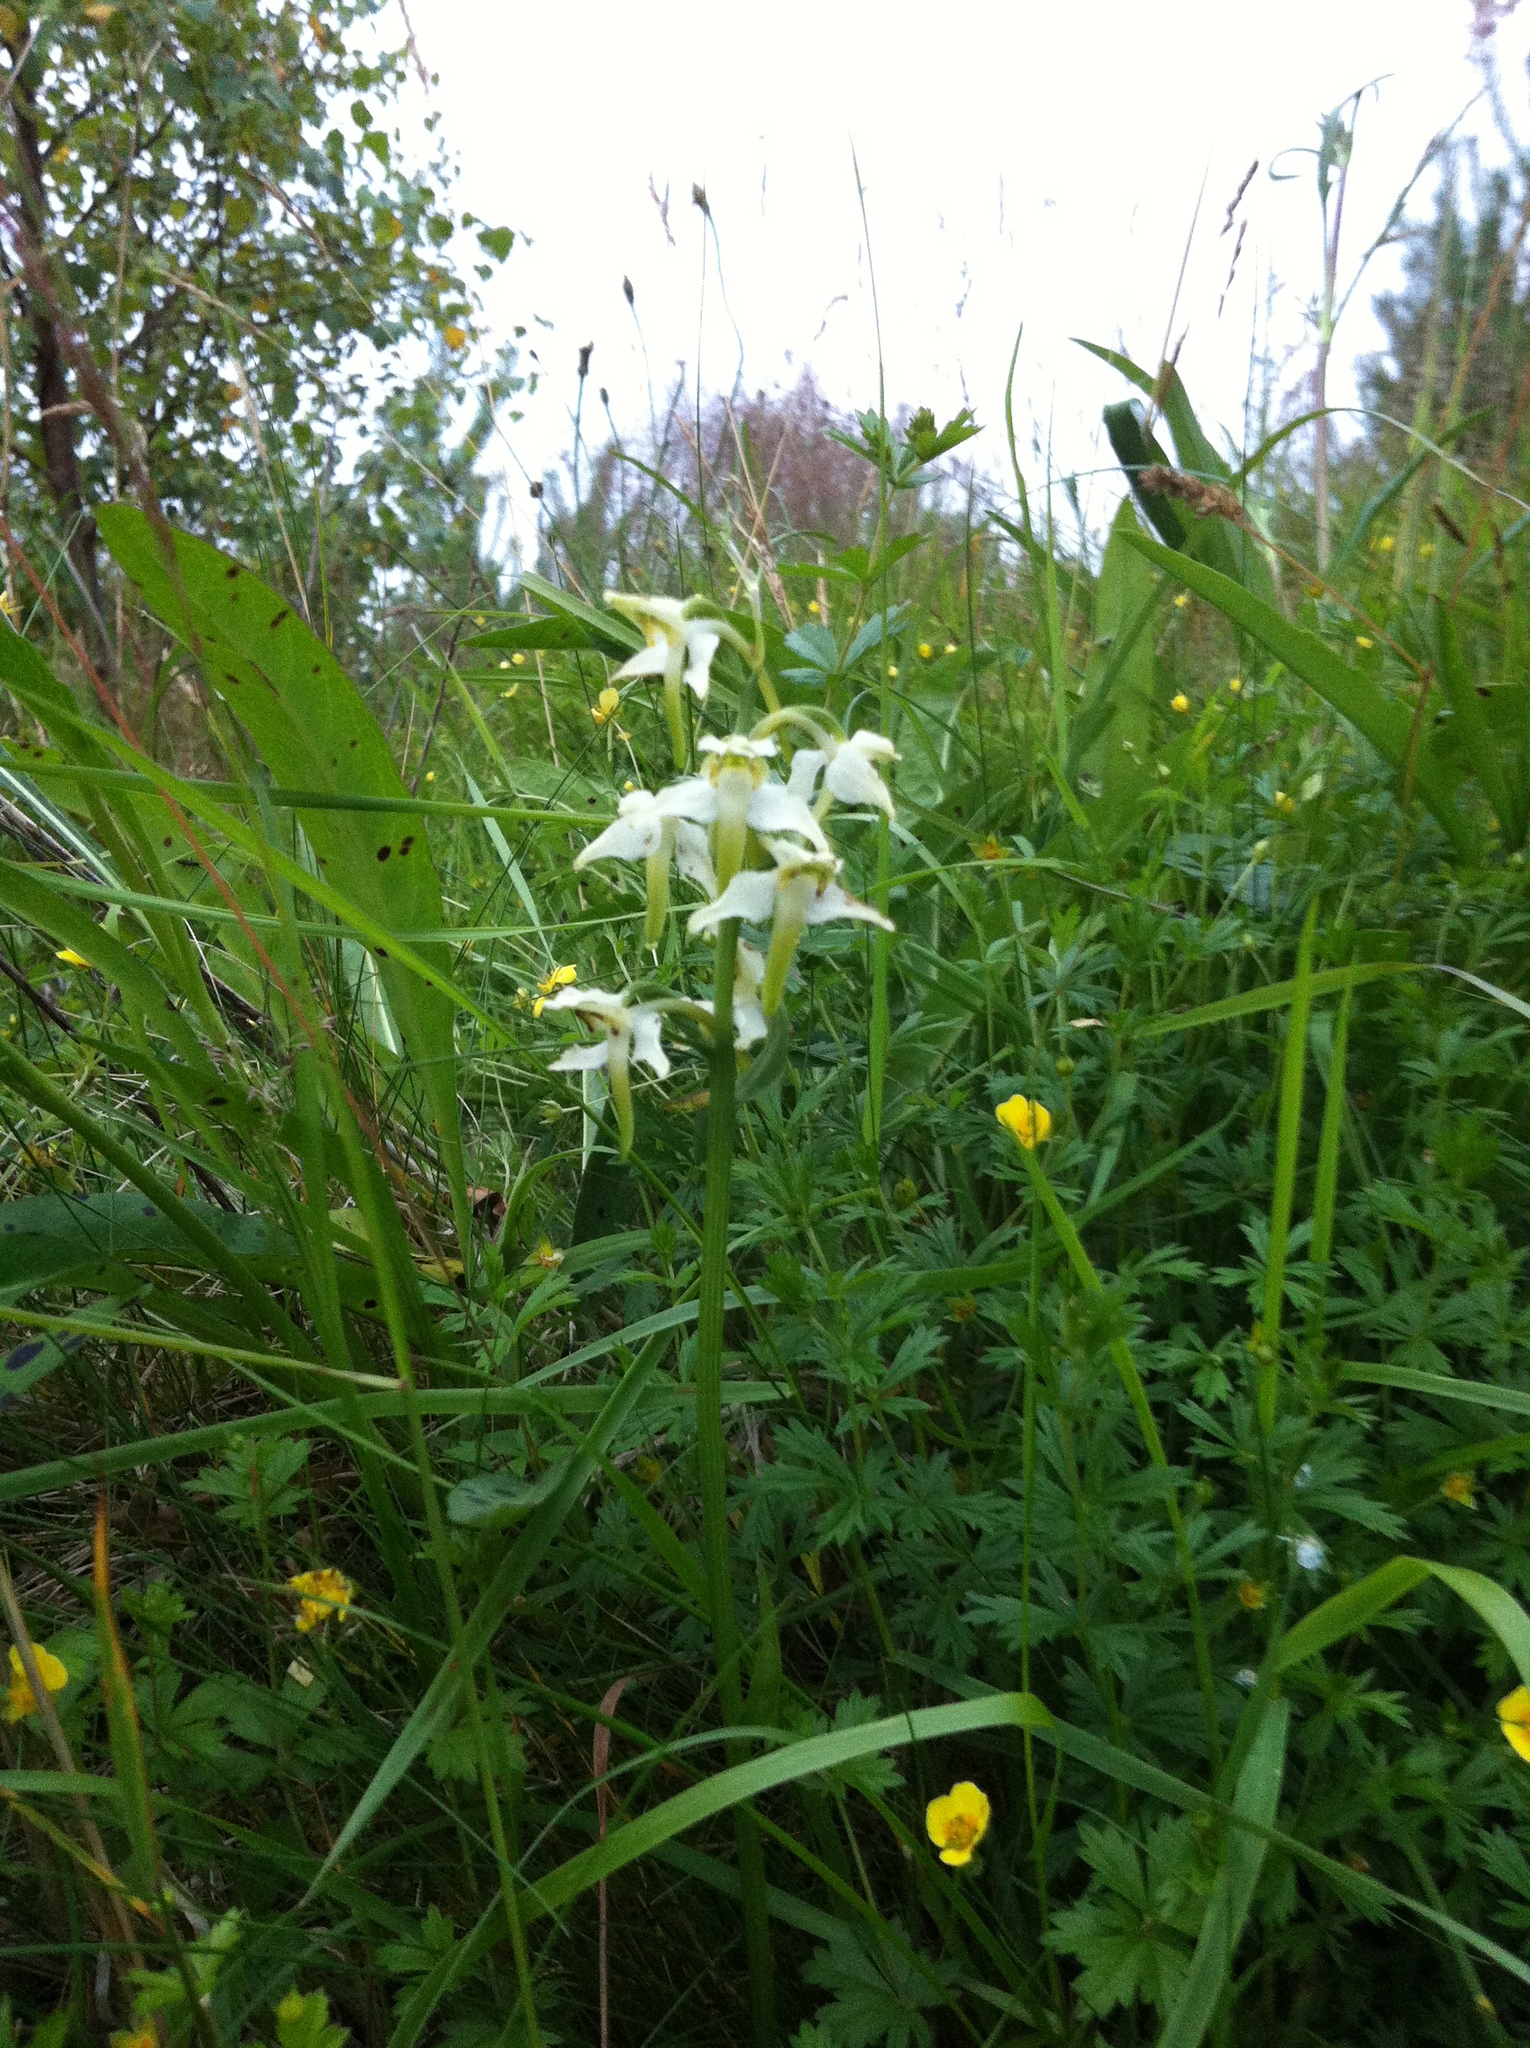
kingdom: Plantae
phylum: Tracheophyta
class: Liliopsida
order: Asparagales
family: Orchidaceae
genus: Platanthera
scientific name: Platanthera chlorantha
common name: Greater butterfly-orchid
